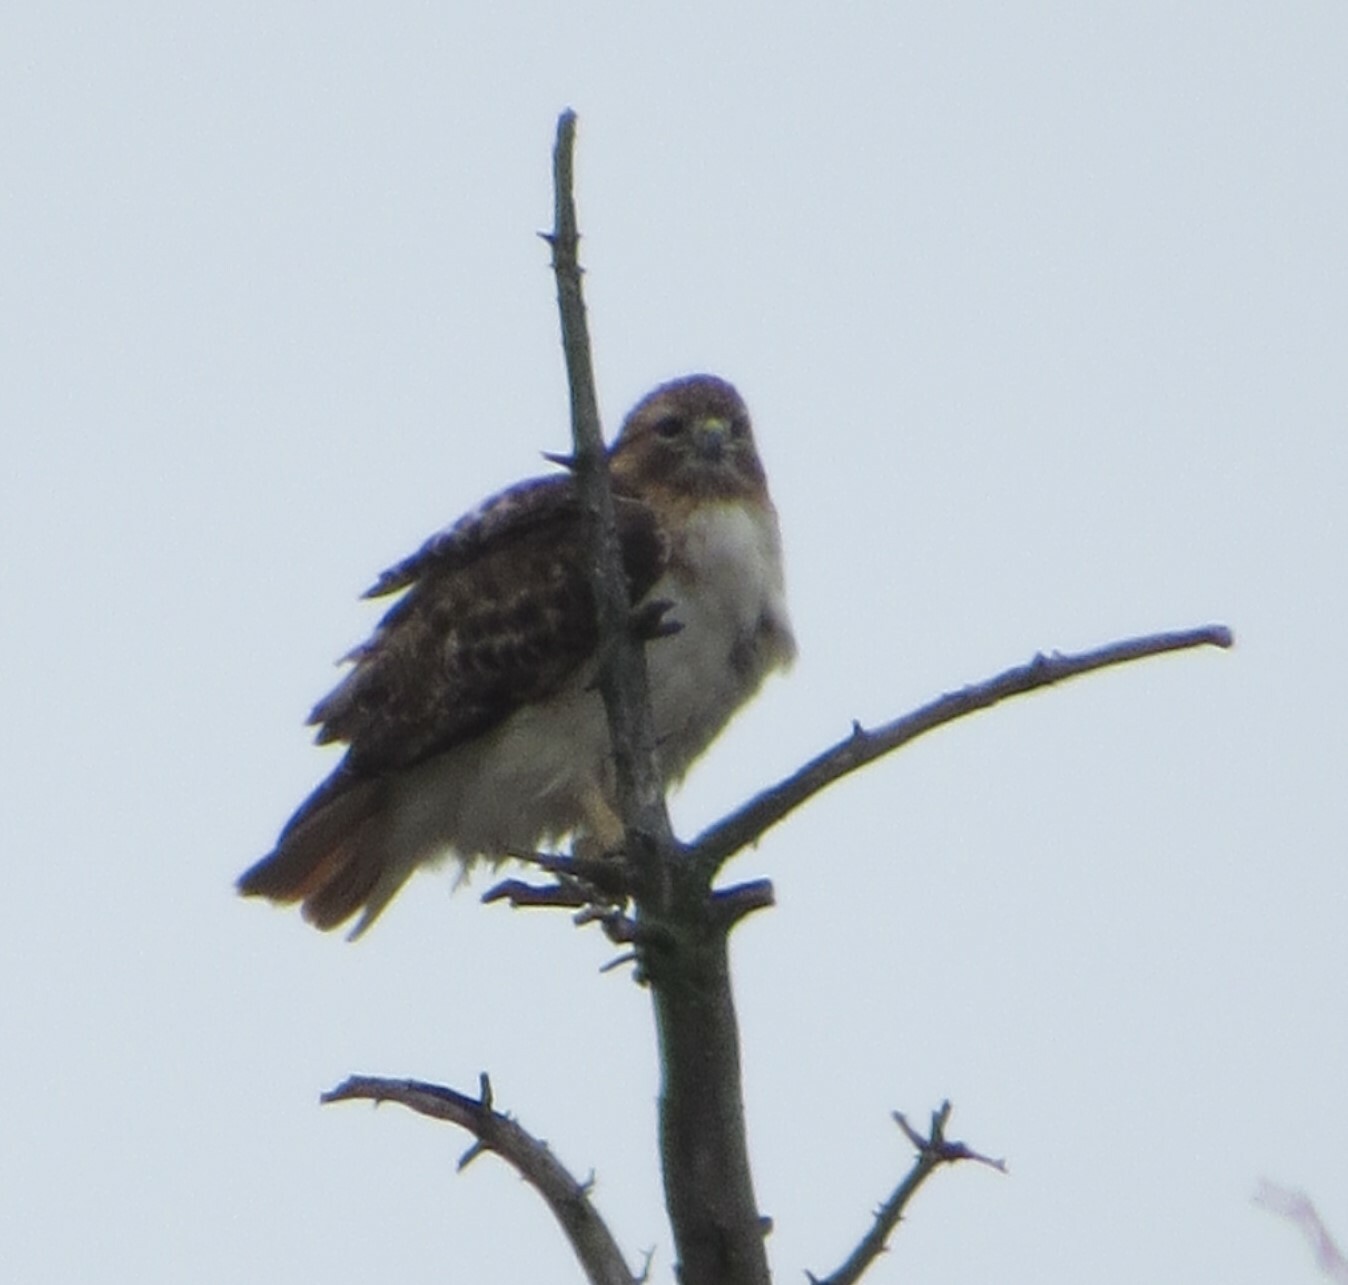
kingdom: Animalia
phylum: Chordata
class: Aves
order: Accipitriformes
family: Accipitridae
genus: Buteo
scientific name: Buteo jamaicensis
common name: Red-tailed hawk
